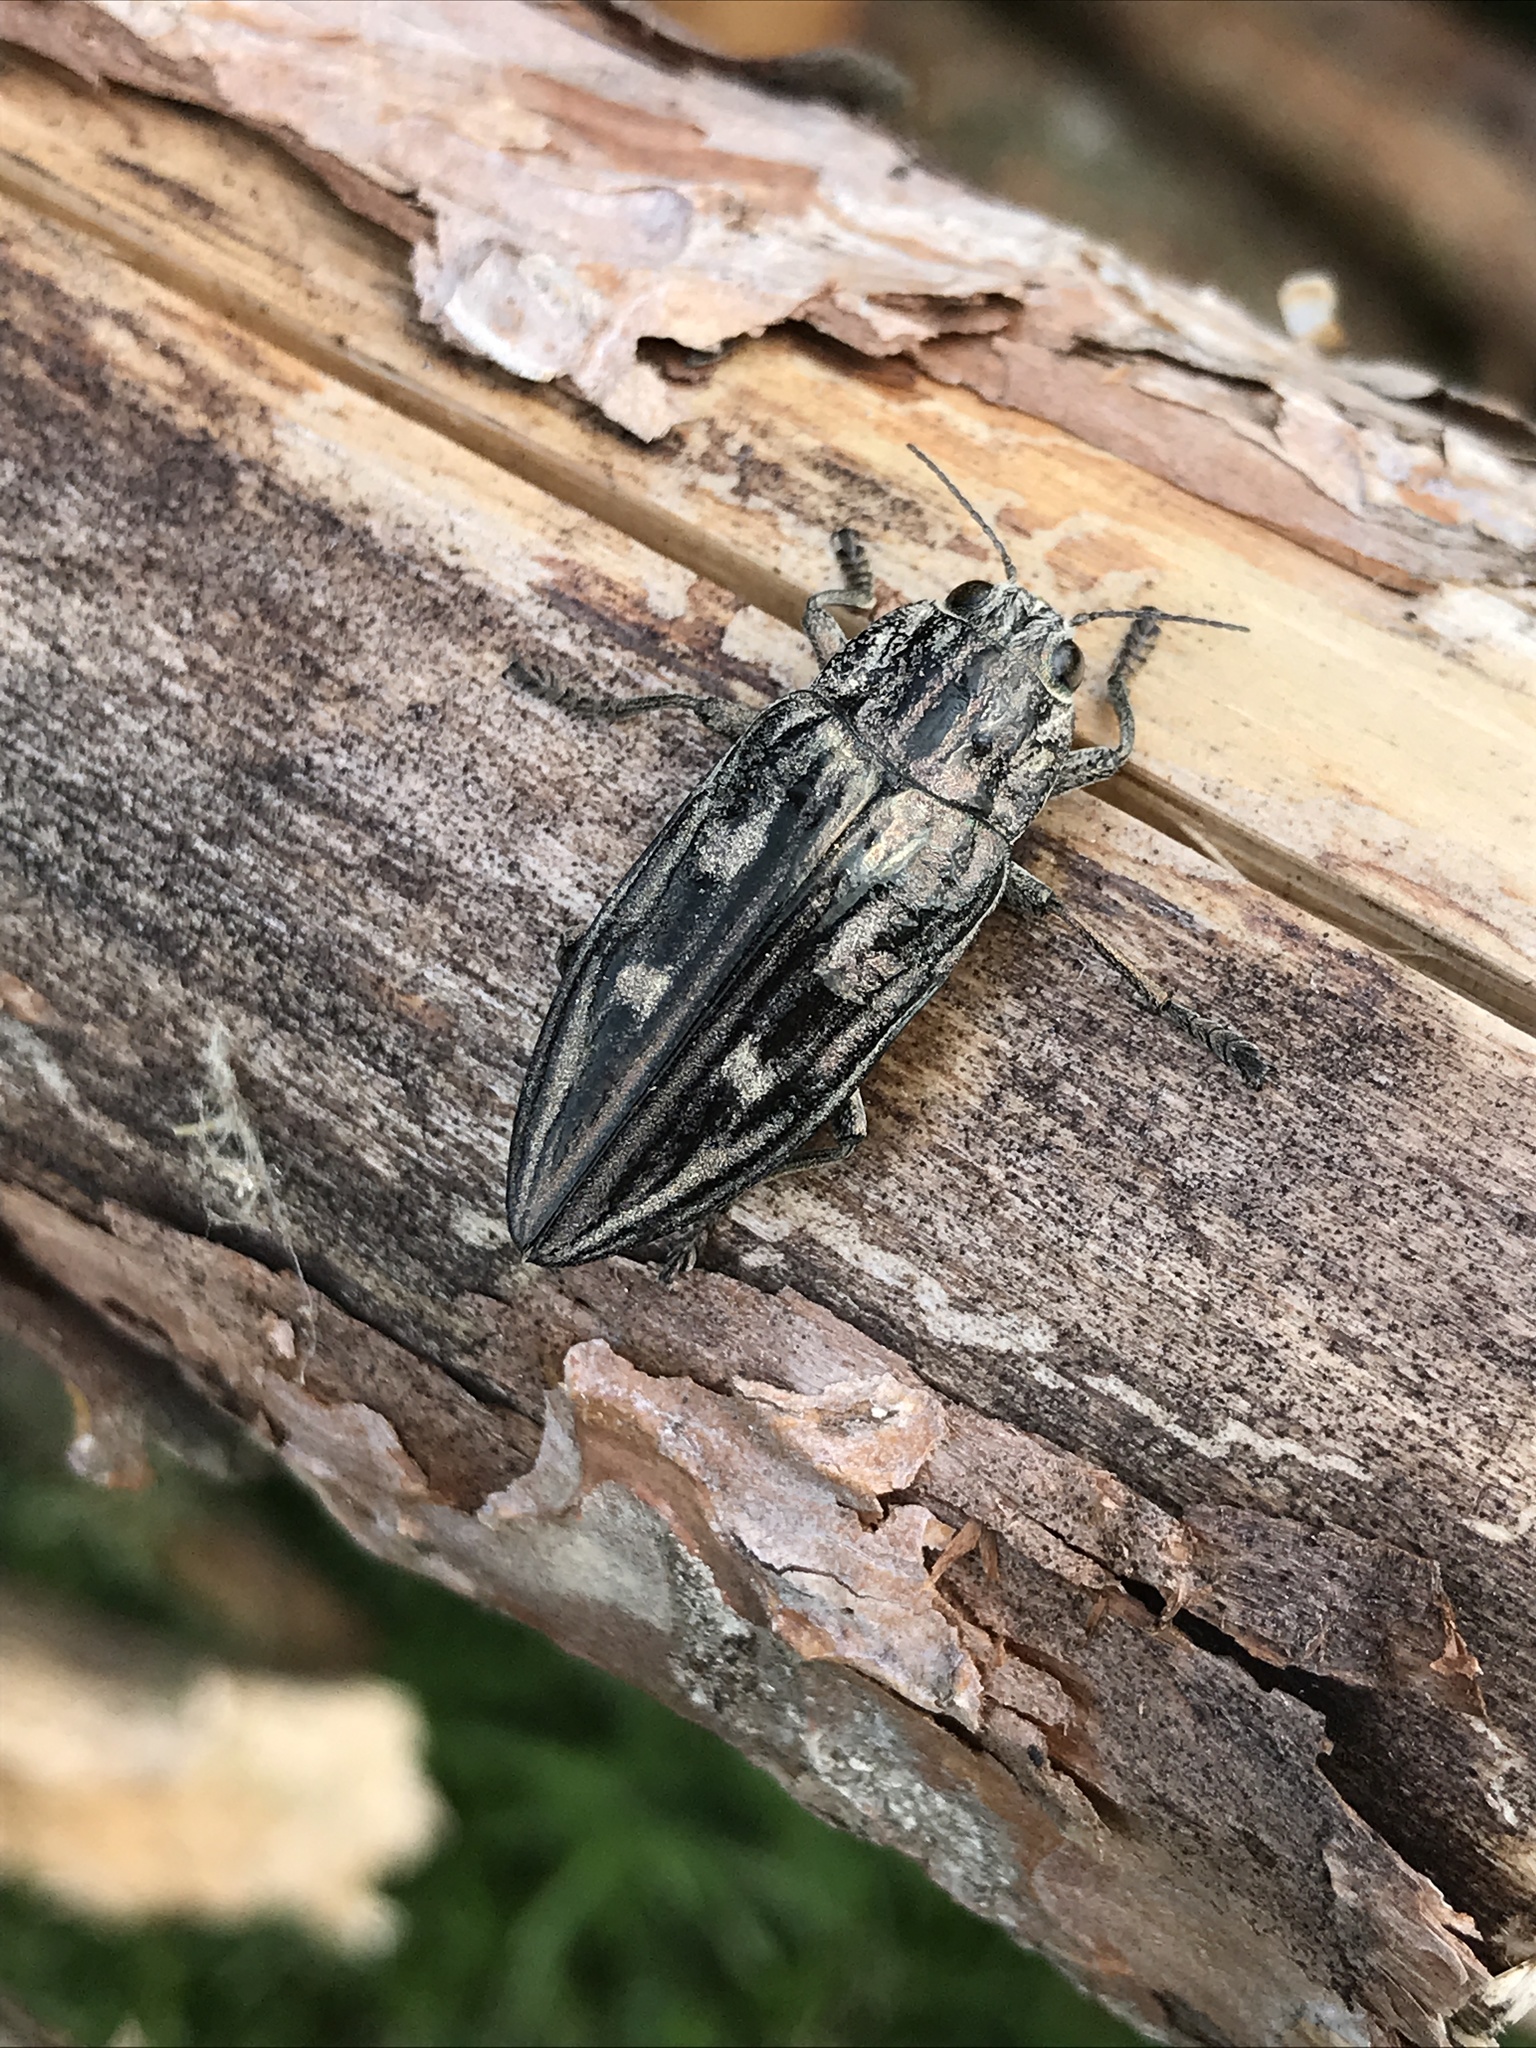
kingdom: Animalia
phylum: Arthropoda
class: Insecta
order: Coleoptera
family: Buprestidae
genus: Chalcophora
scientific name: Chalcophora mariana
